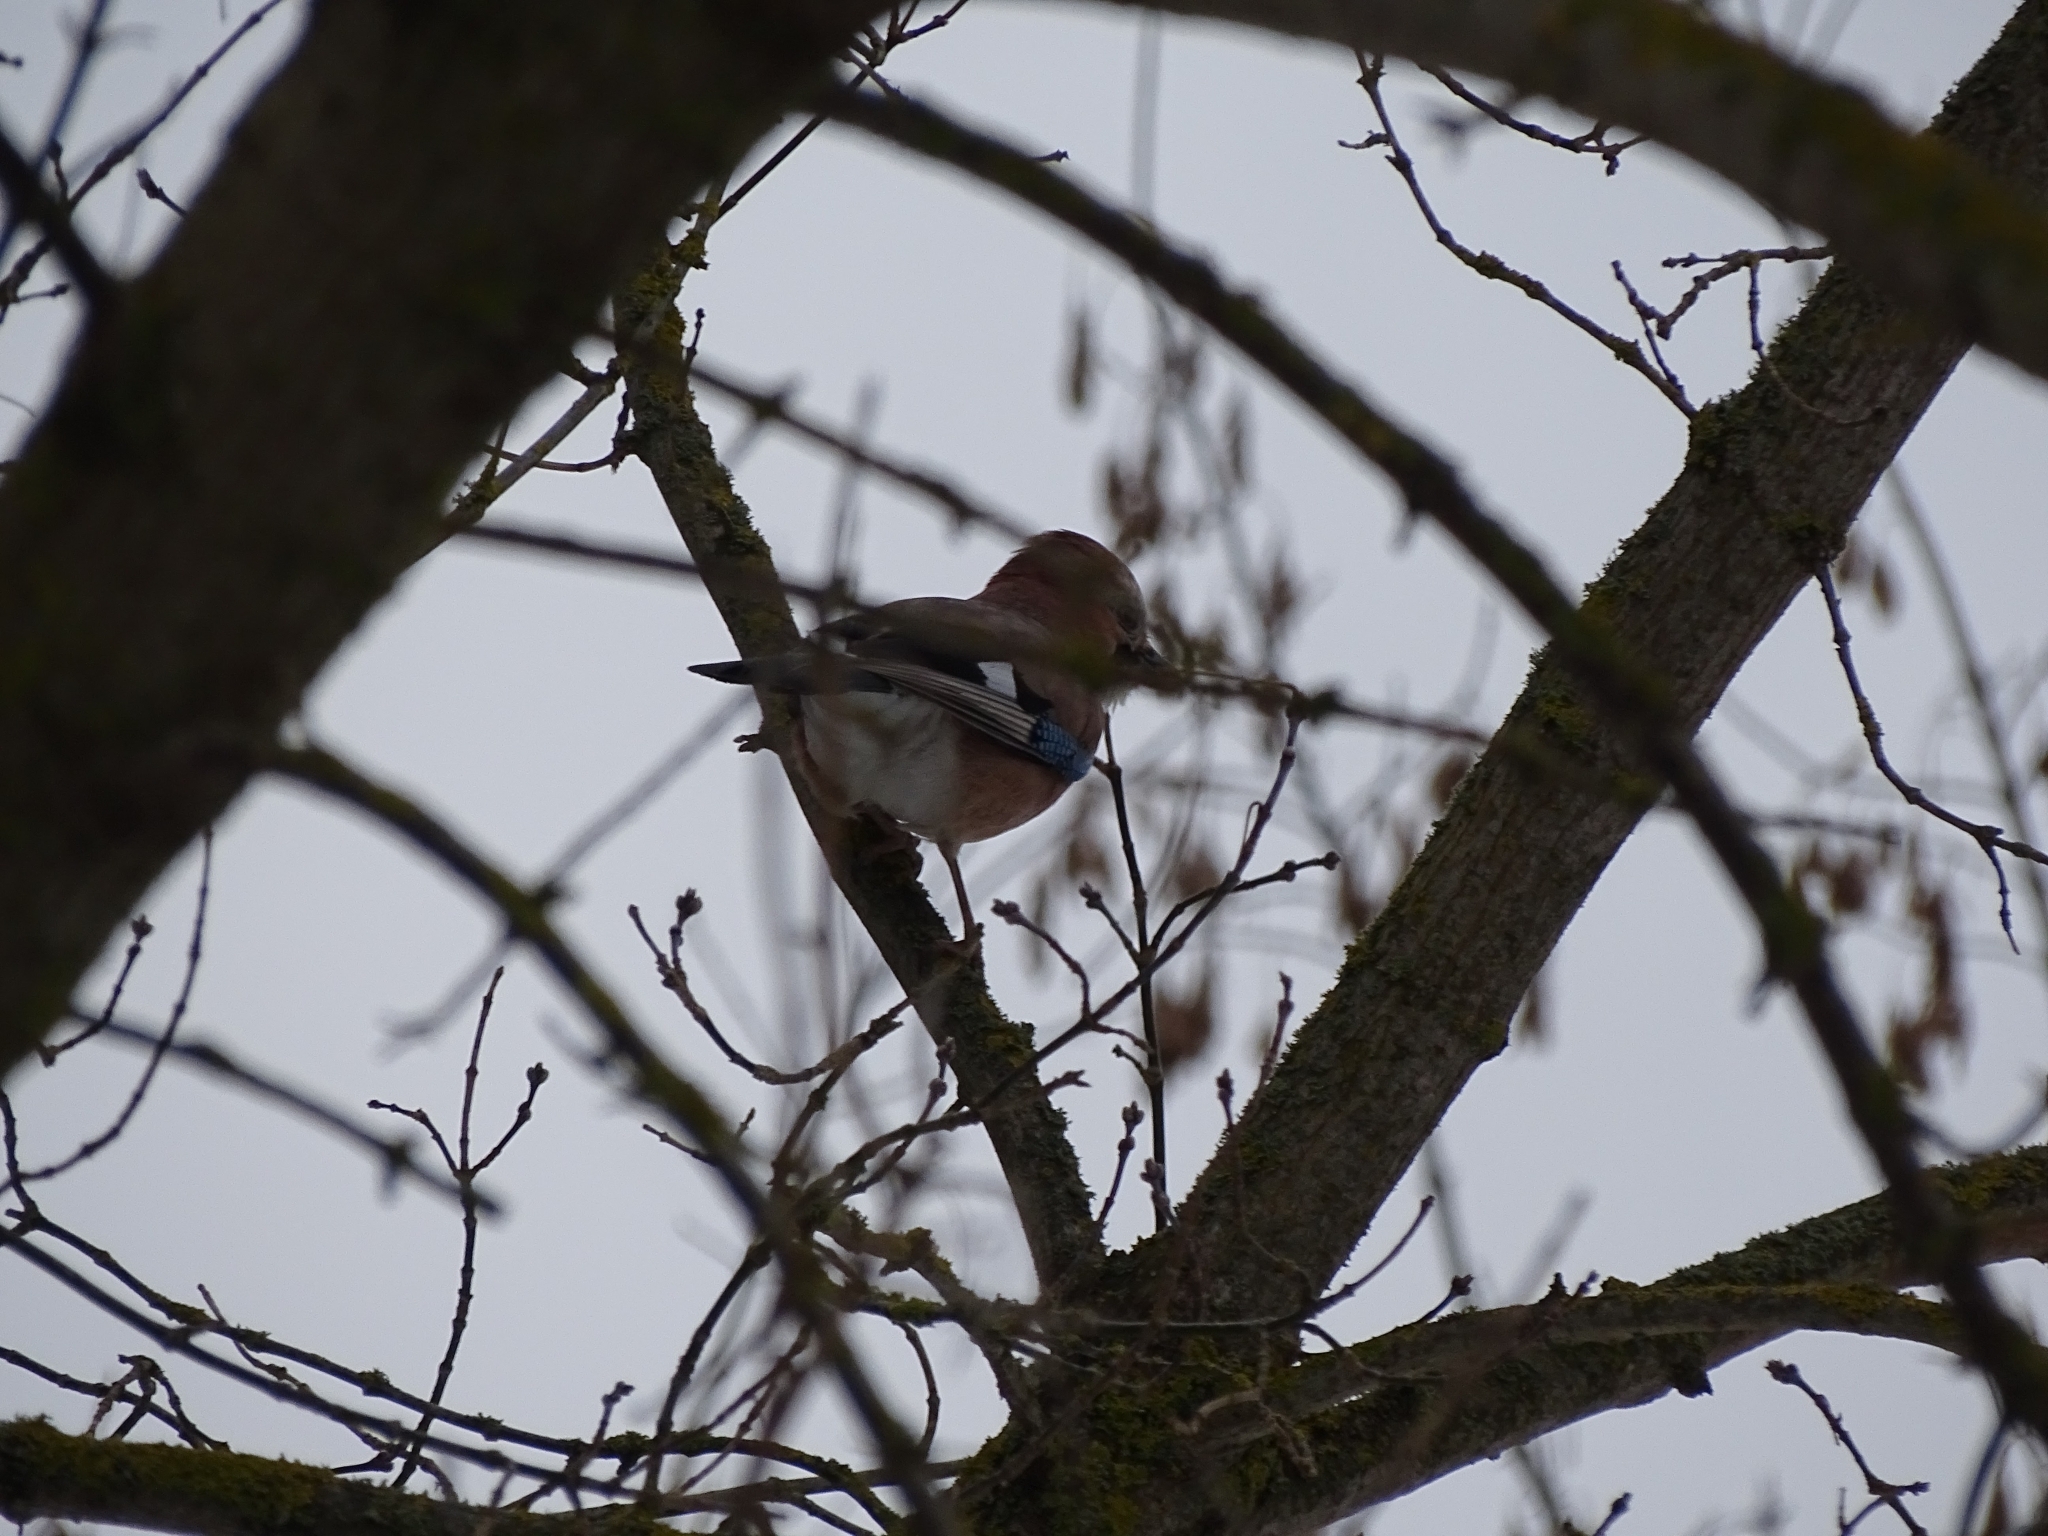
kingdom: Animalia
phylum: Chordata
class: Aves
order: Passeriformes
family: Corvidae
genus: Garrulus
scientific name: Garrulus glandarius
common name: Eurasian jay
